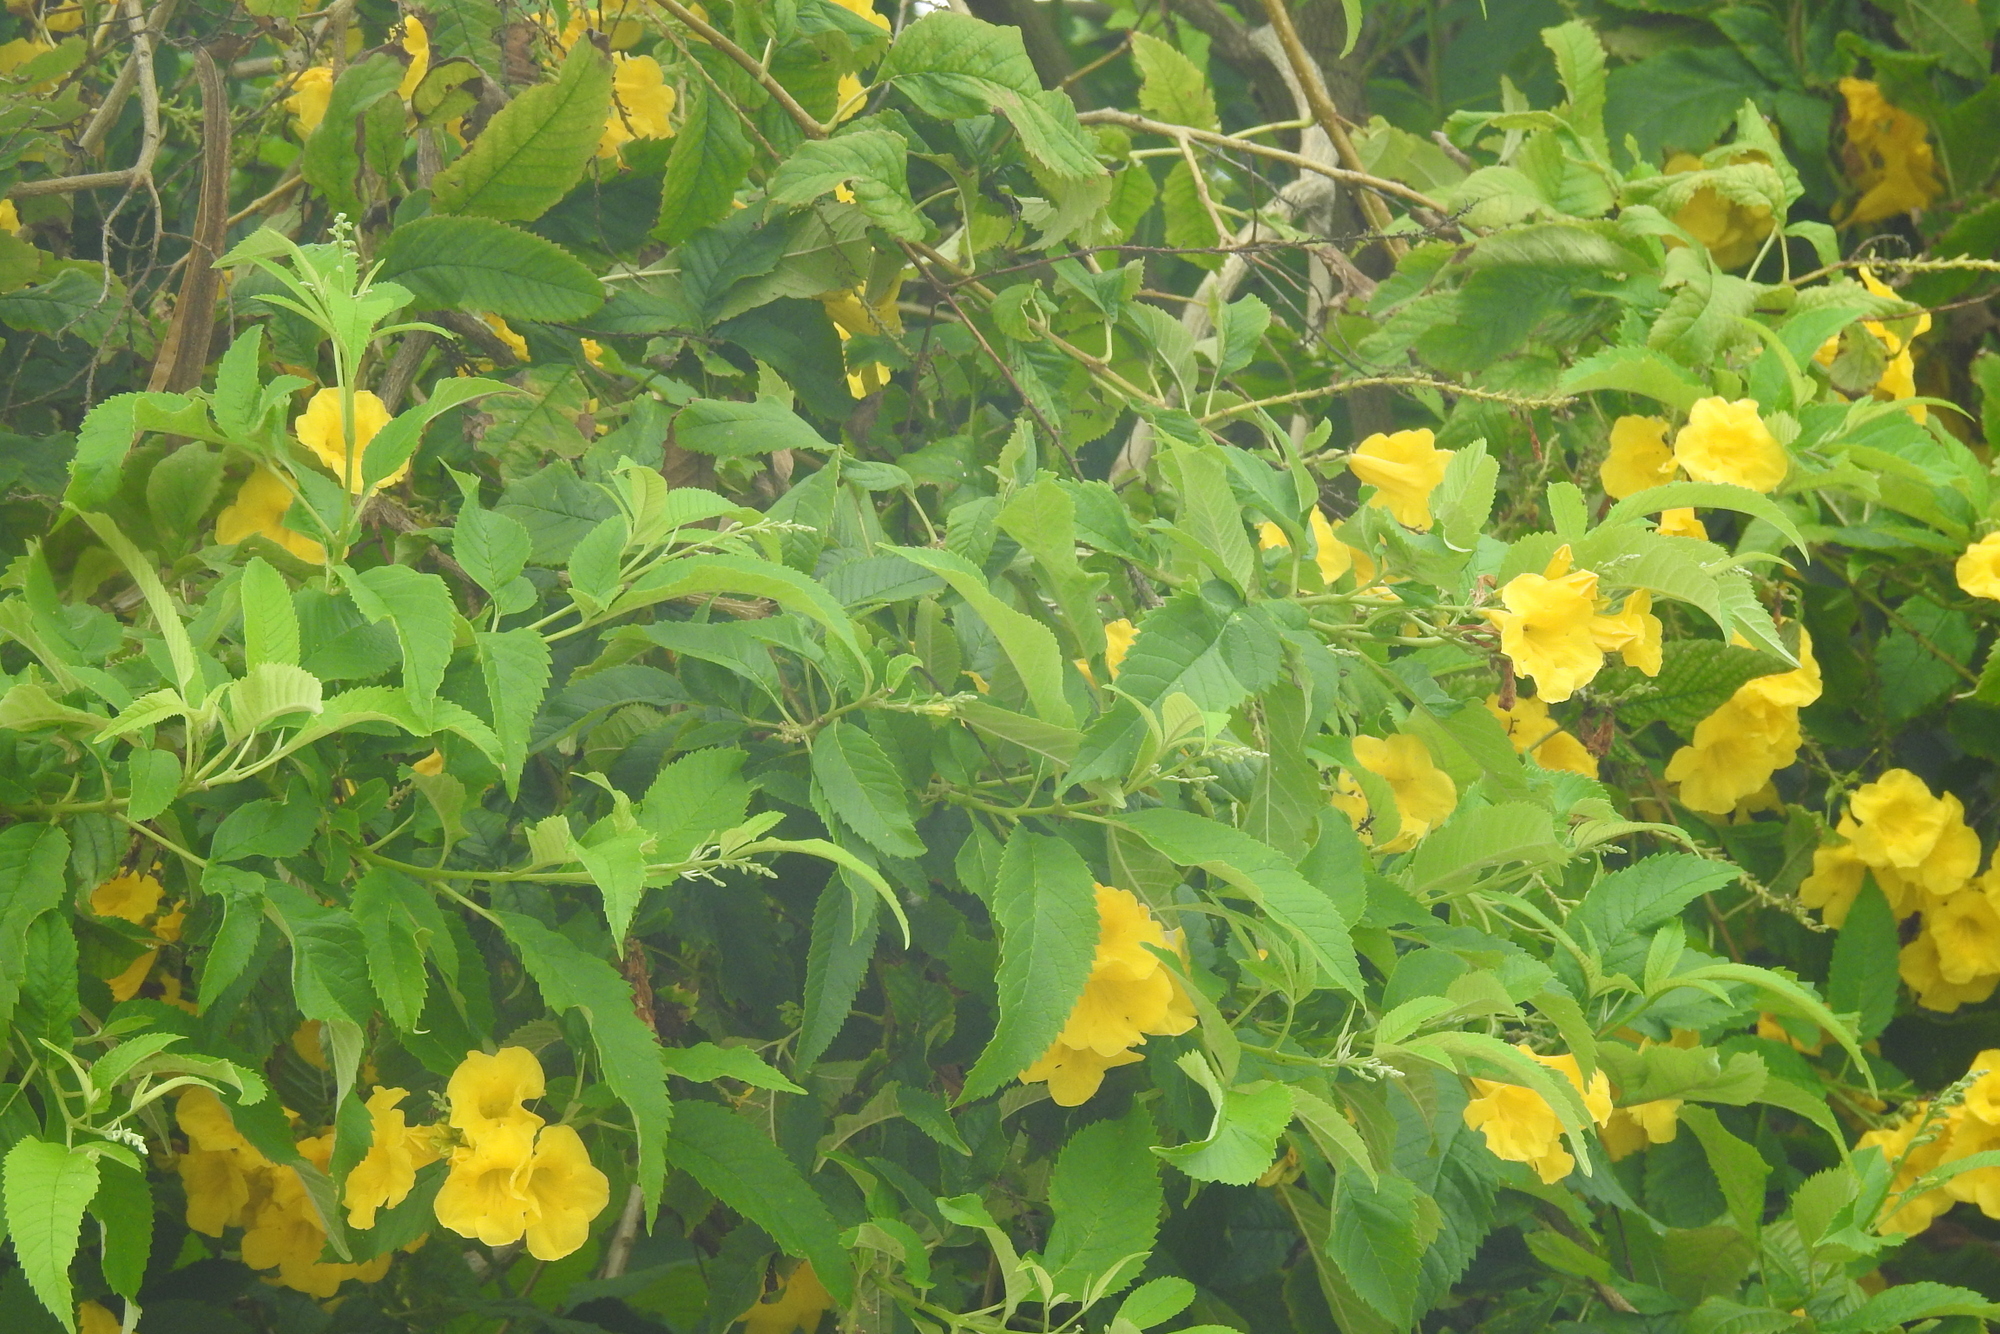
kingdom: Plantae
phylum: Tracheophyta
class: Magnoliopsida
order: Lamiales
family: Bignoniaceae
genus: Tecoma
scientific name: Tecoma stans
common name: Yellow trumpetbush
